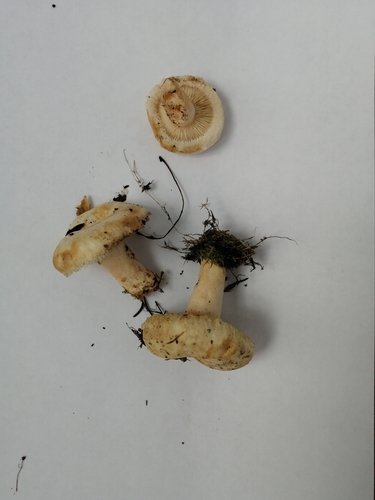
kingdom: Fungi
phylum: Basidiomycota
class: Agaricomycetes
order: Russulales
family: Russulaceae
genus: Lactarius
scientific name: Lactarius pubescens
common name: Bearded milkcap
